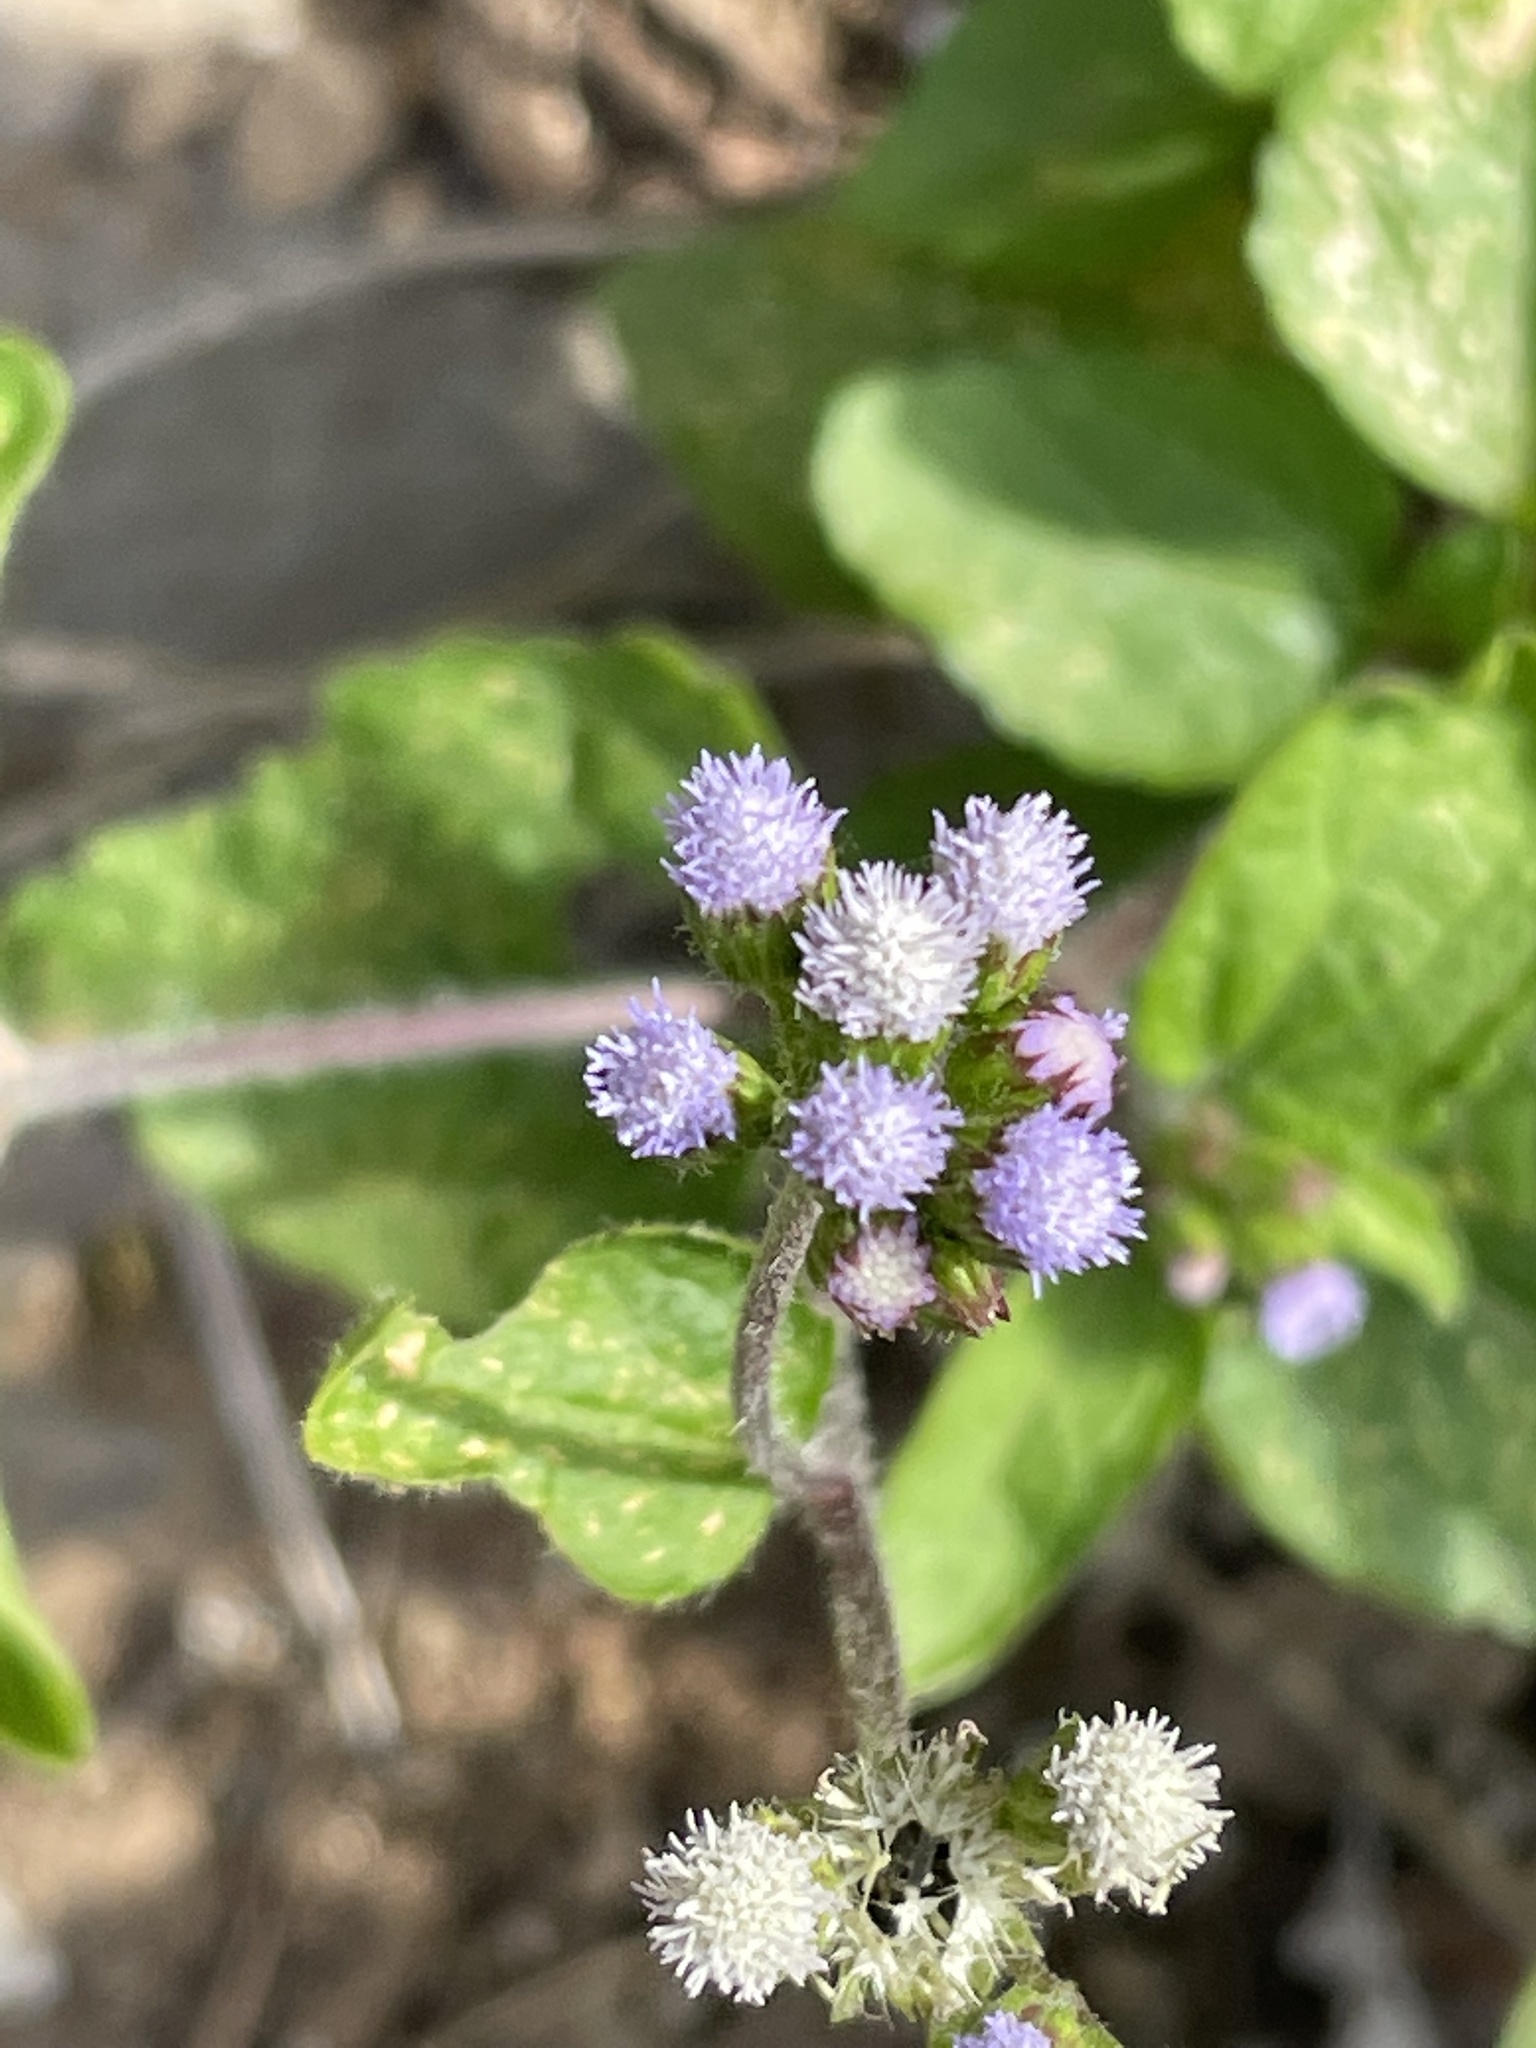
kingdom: Plantae
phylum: Tracheophyta
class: Magnoliopsida
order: Asterales
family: Asteraceae
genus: Ageratum
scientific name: Ageratum conyzoides
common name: Tropical whiteweed
